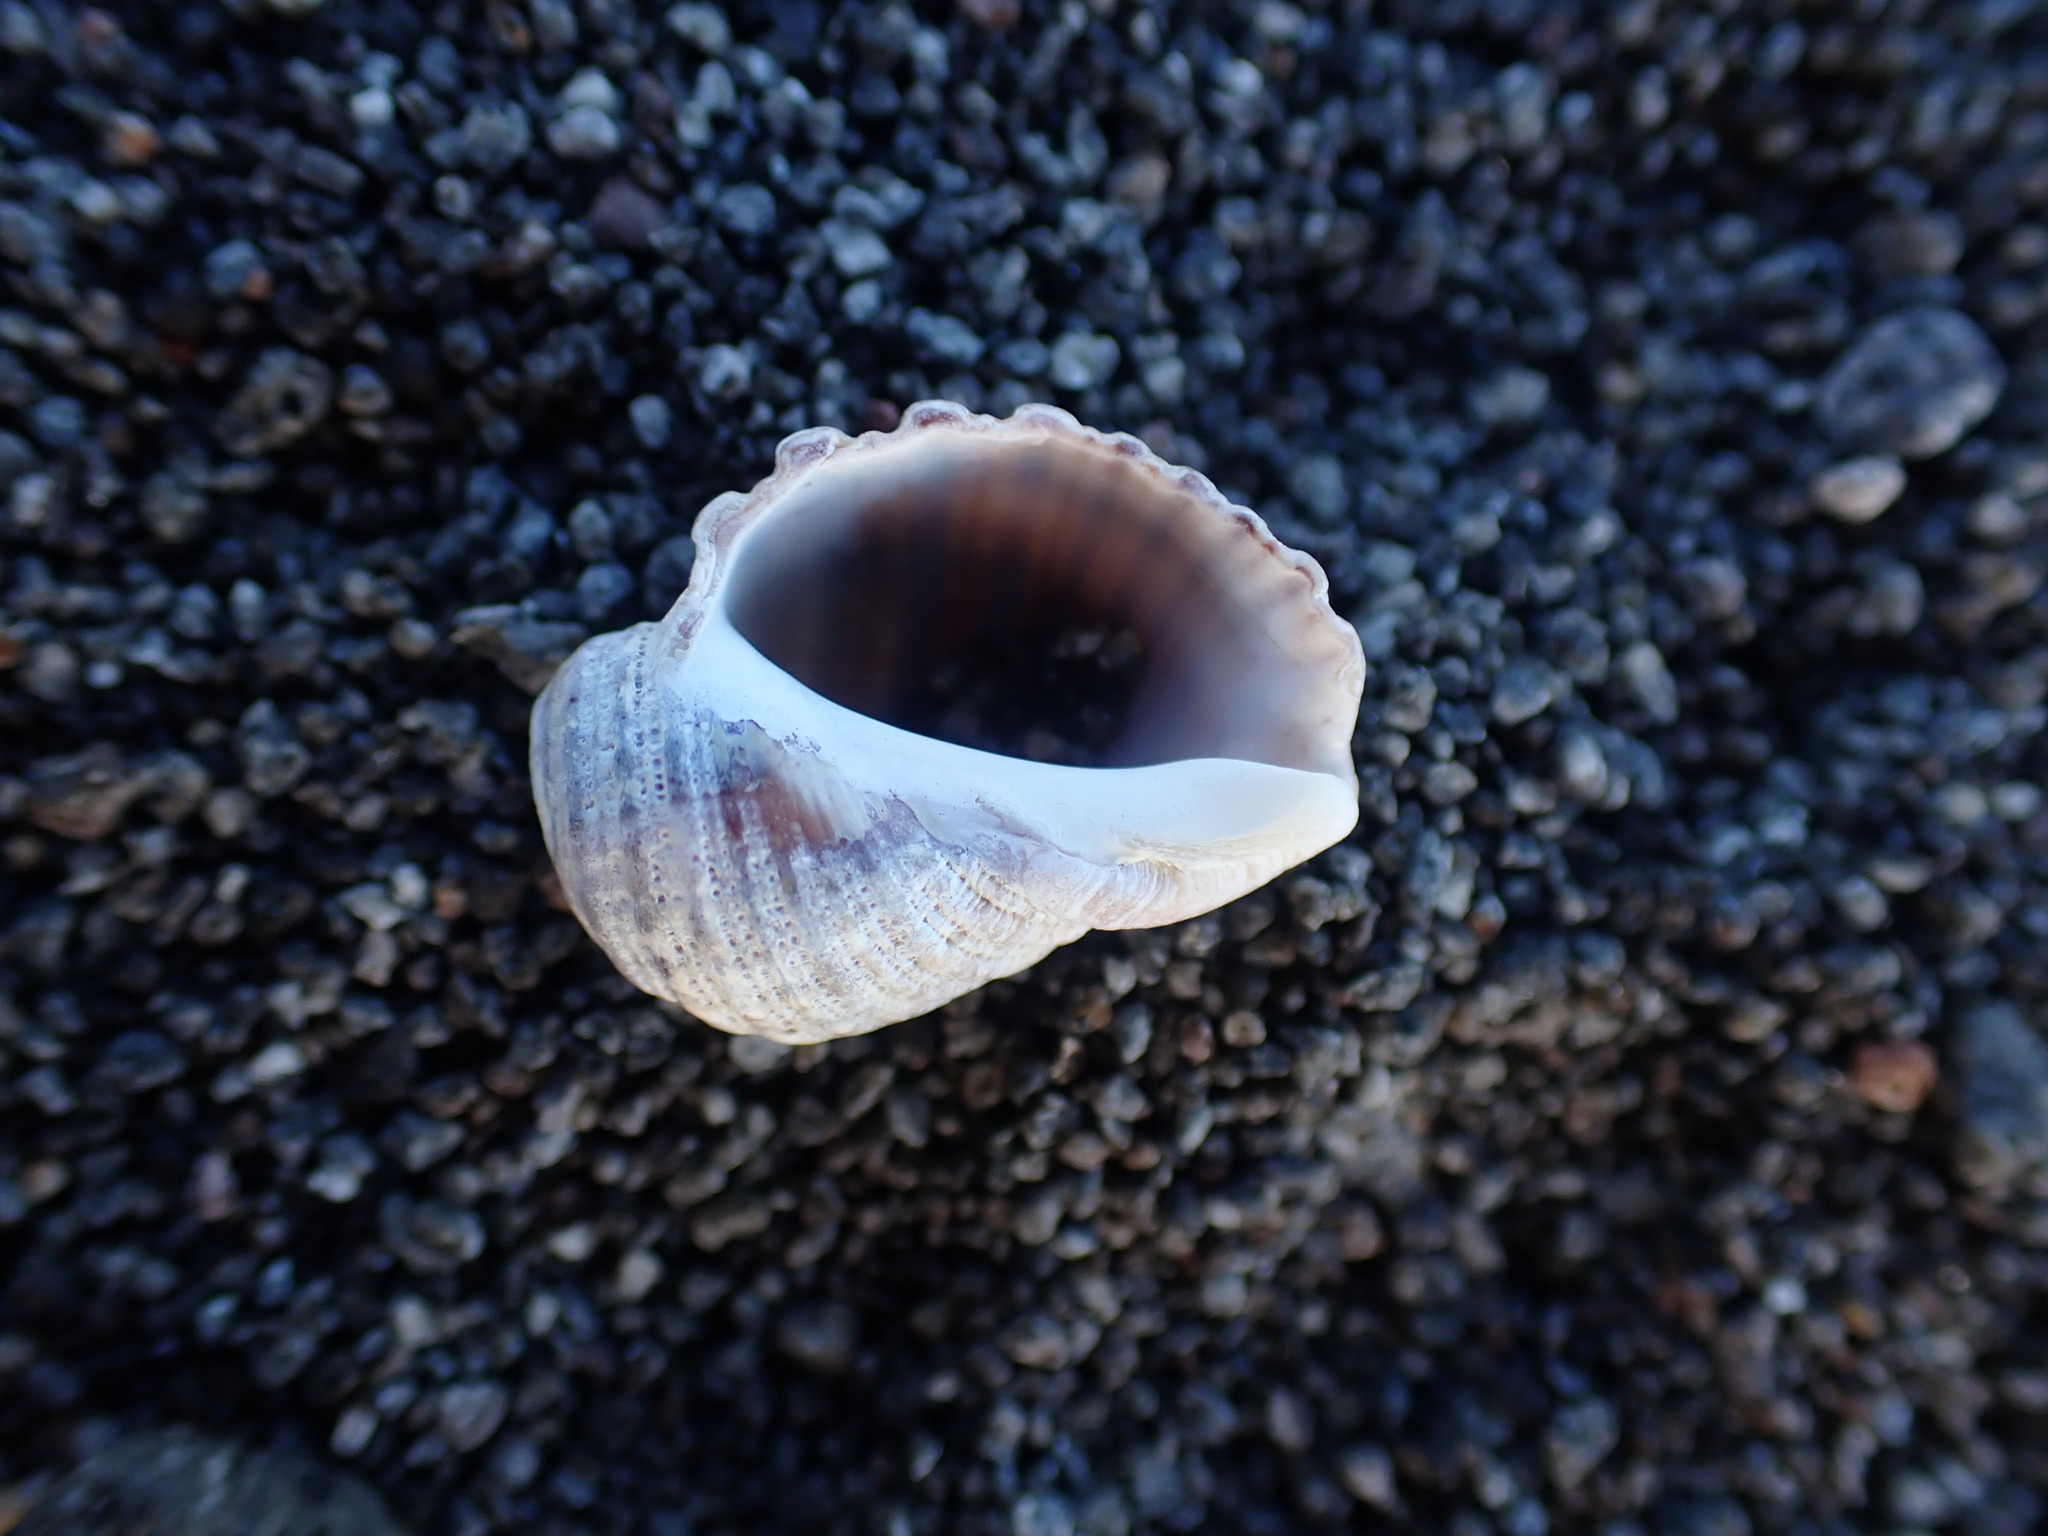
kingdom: Animalia
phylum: Mollusca
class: Gastropoda
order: Neogastropoda
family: Muricidae
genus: Dicathais
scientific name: Dicathais orbita
